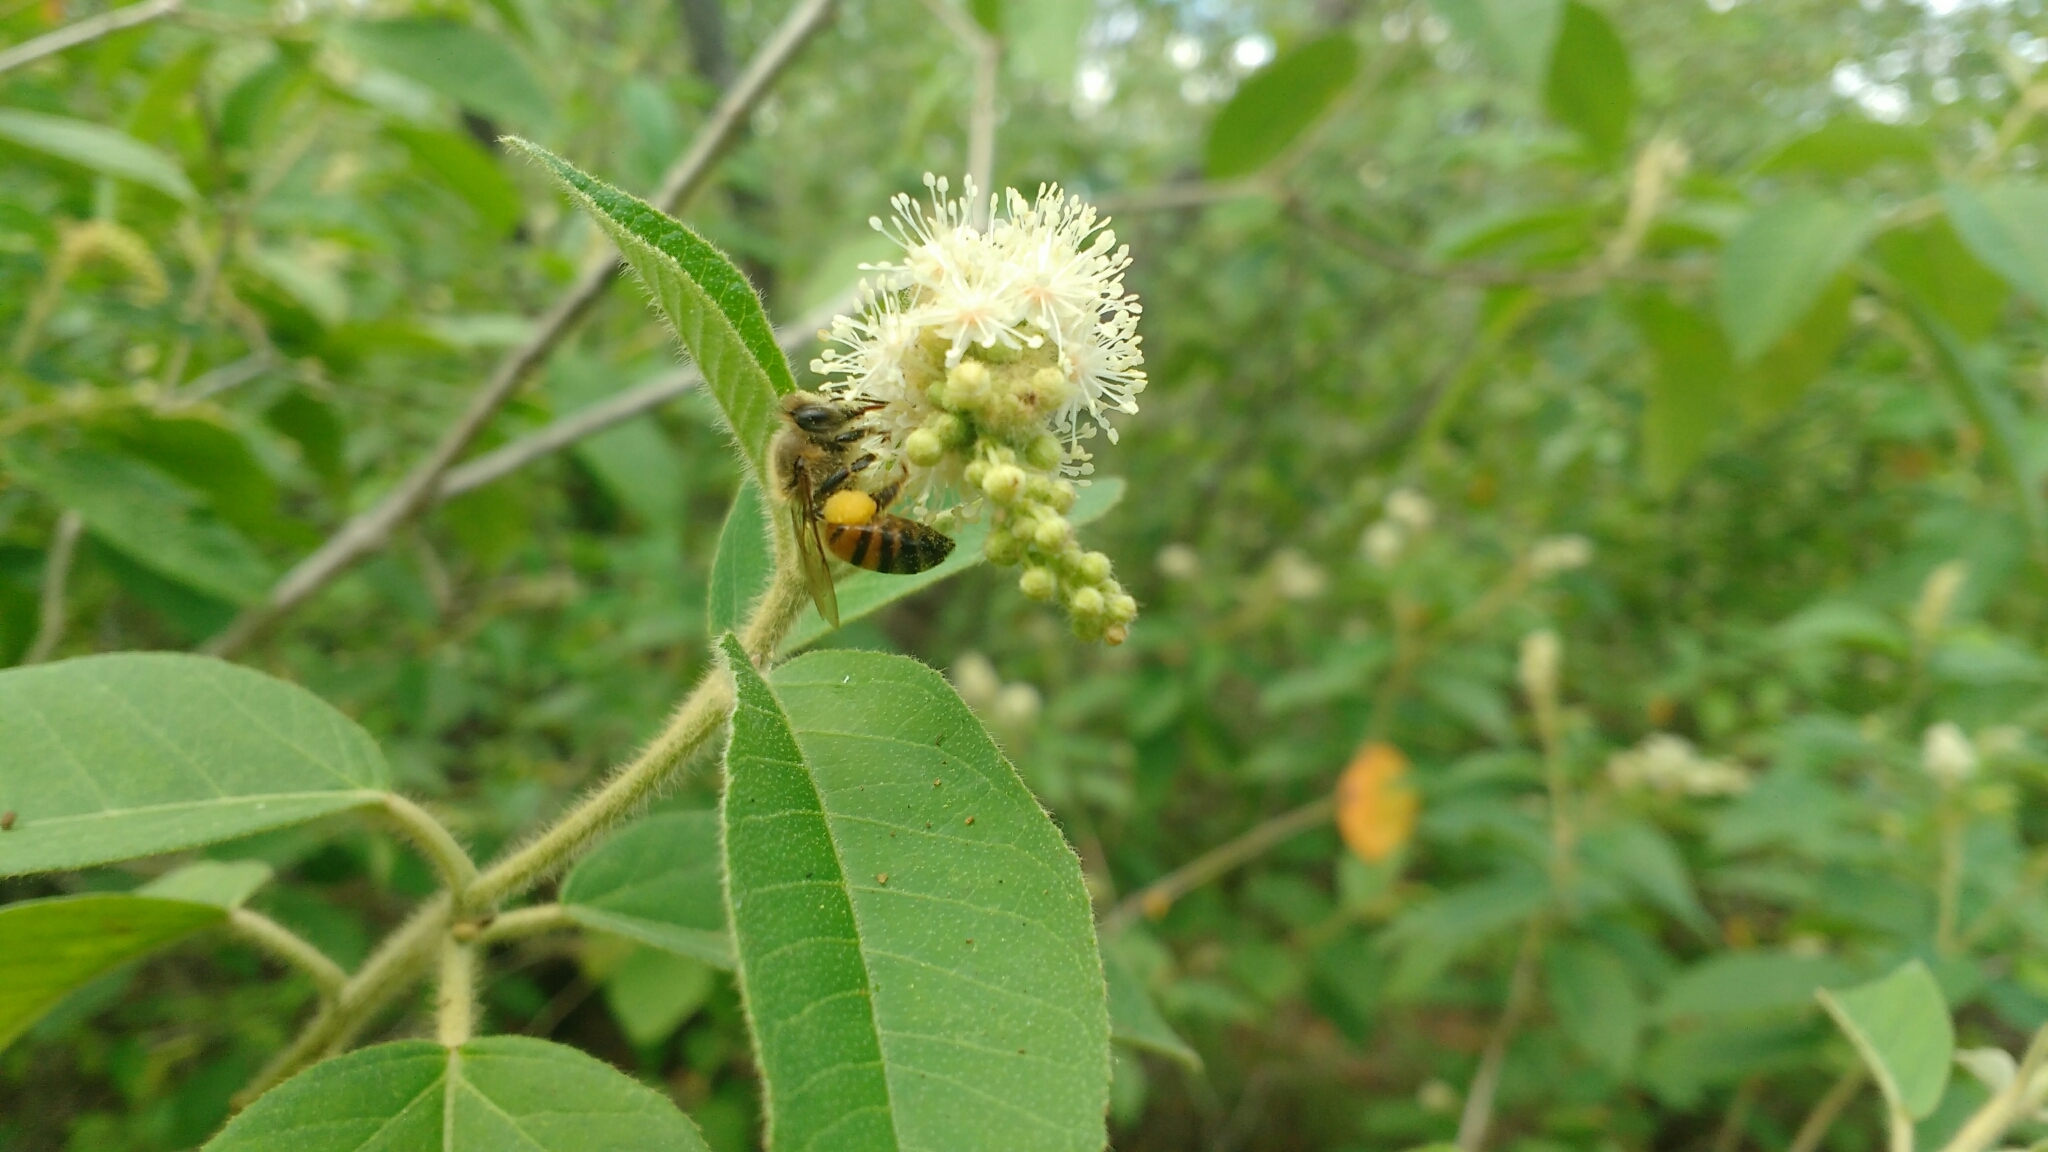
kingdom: Animalia
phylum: Arthropoda
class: Insecta
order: Hymenoptera
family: Apidae
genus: Apis
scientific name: Apis mellifera
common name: Honey bee
